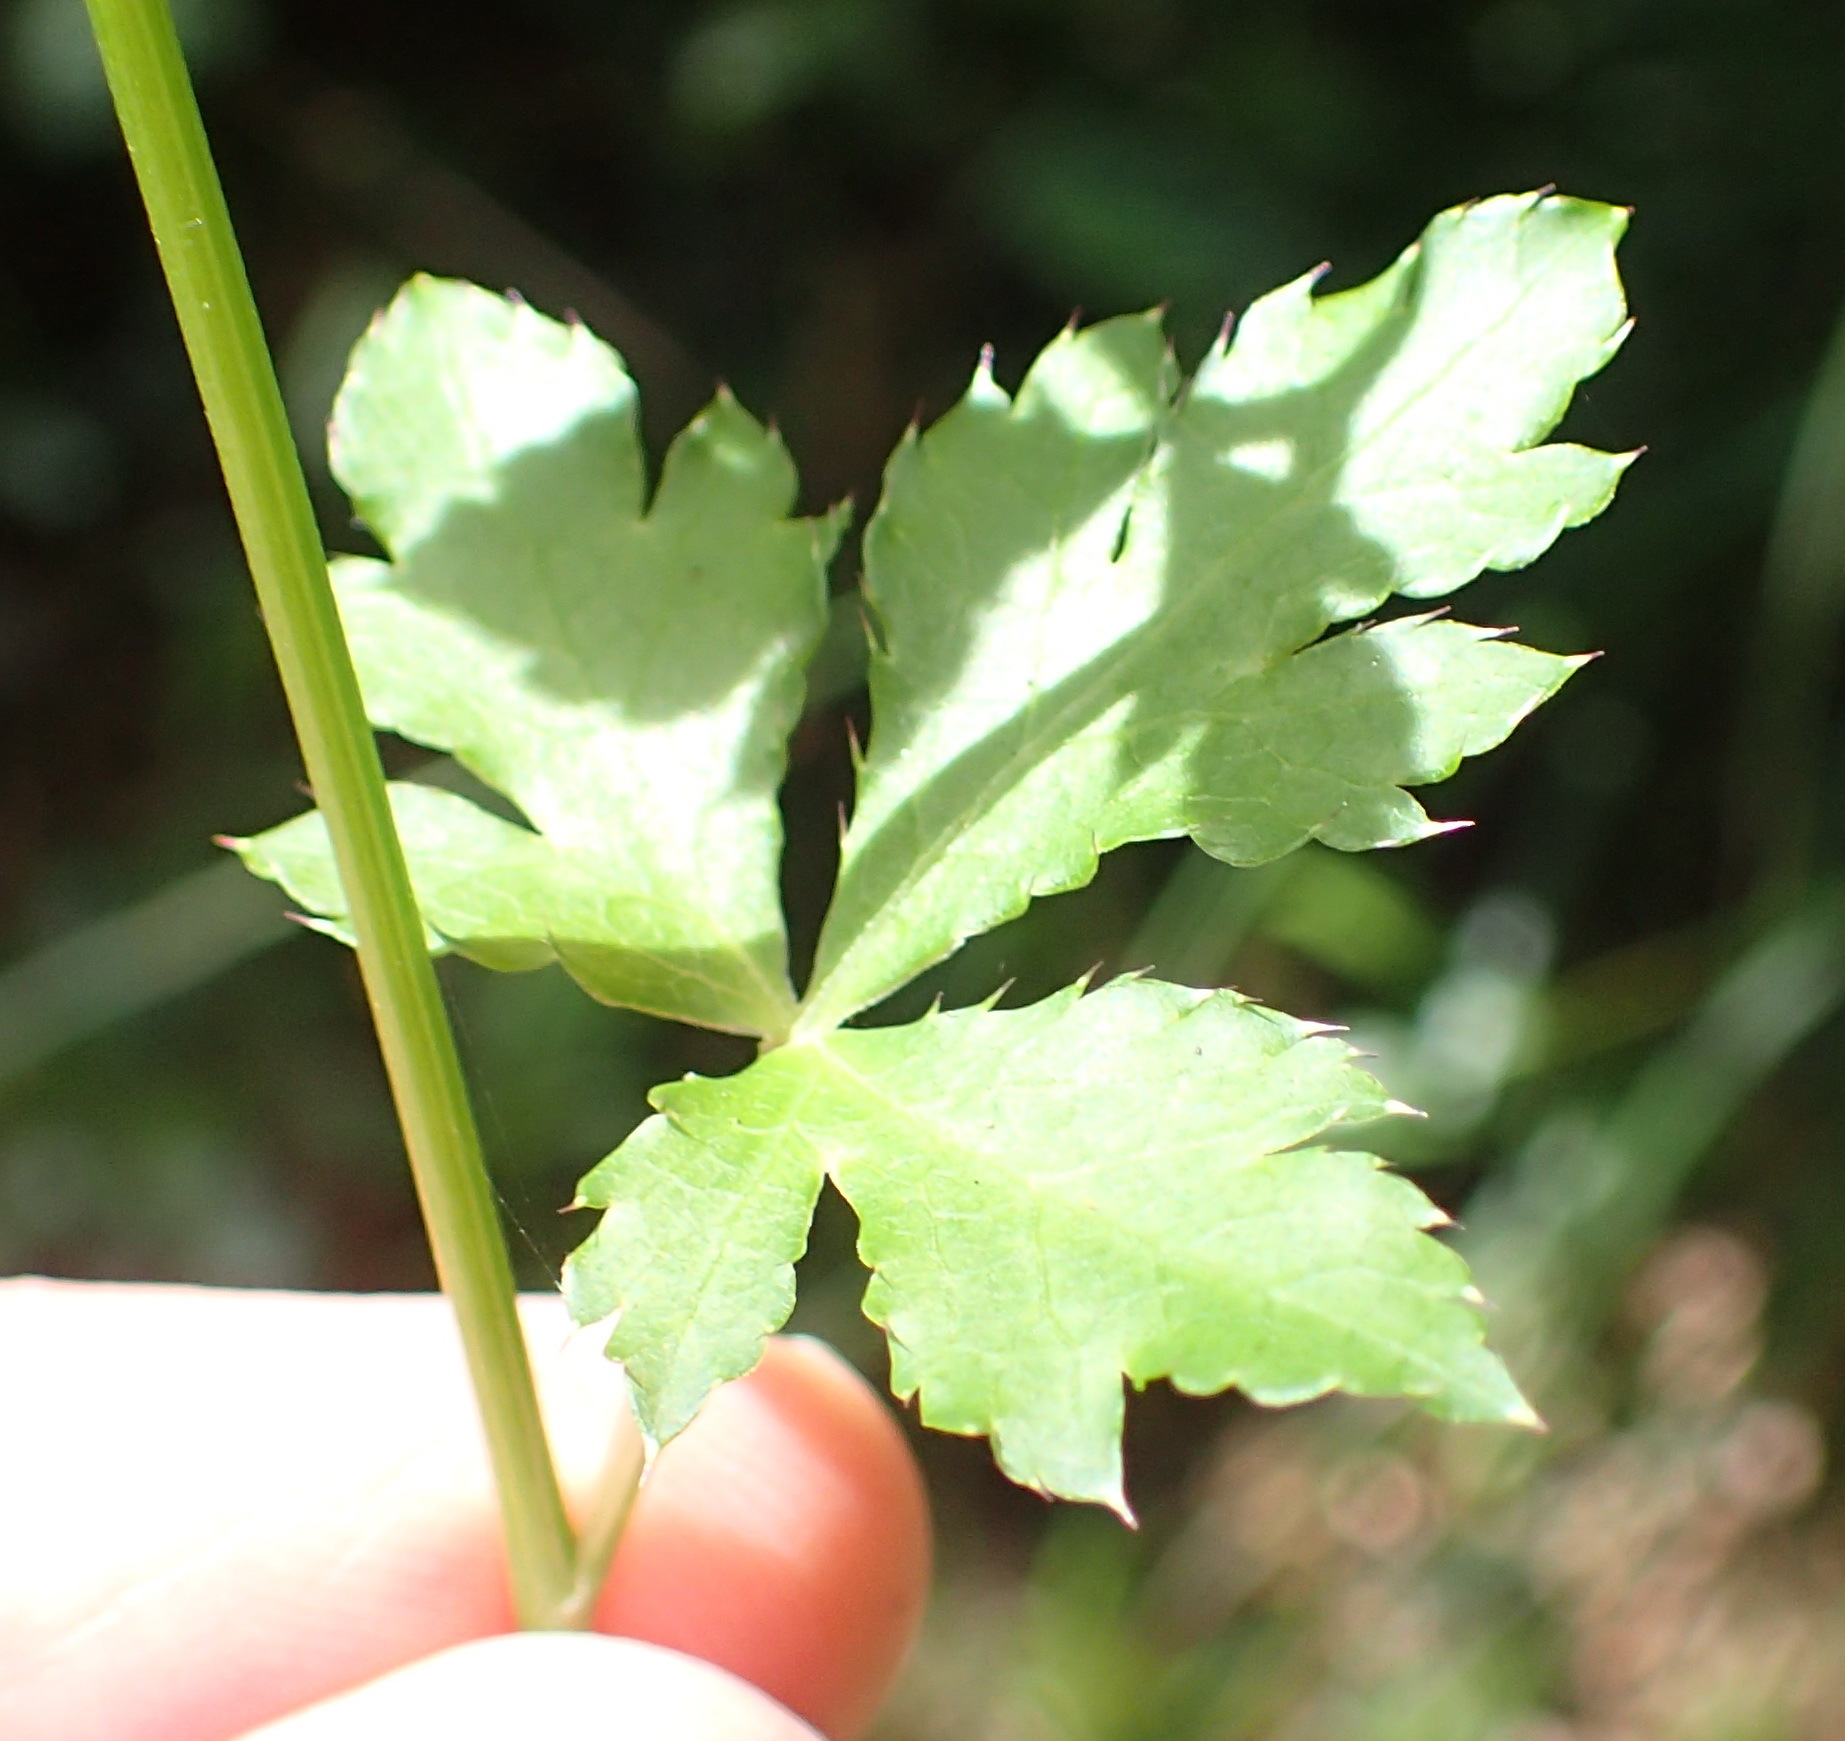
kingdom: Plantae
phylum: Tracheophyta
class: Magnoliopsida
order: Apiales
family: Apiaceae
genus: Sanicula
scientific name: Sanicula elata
